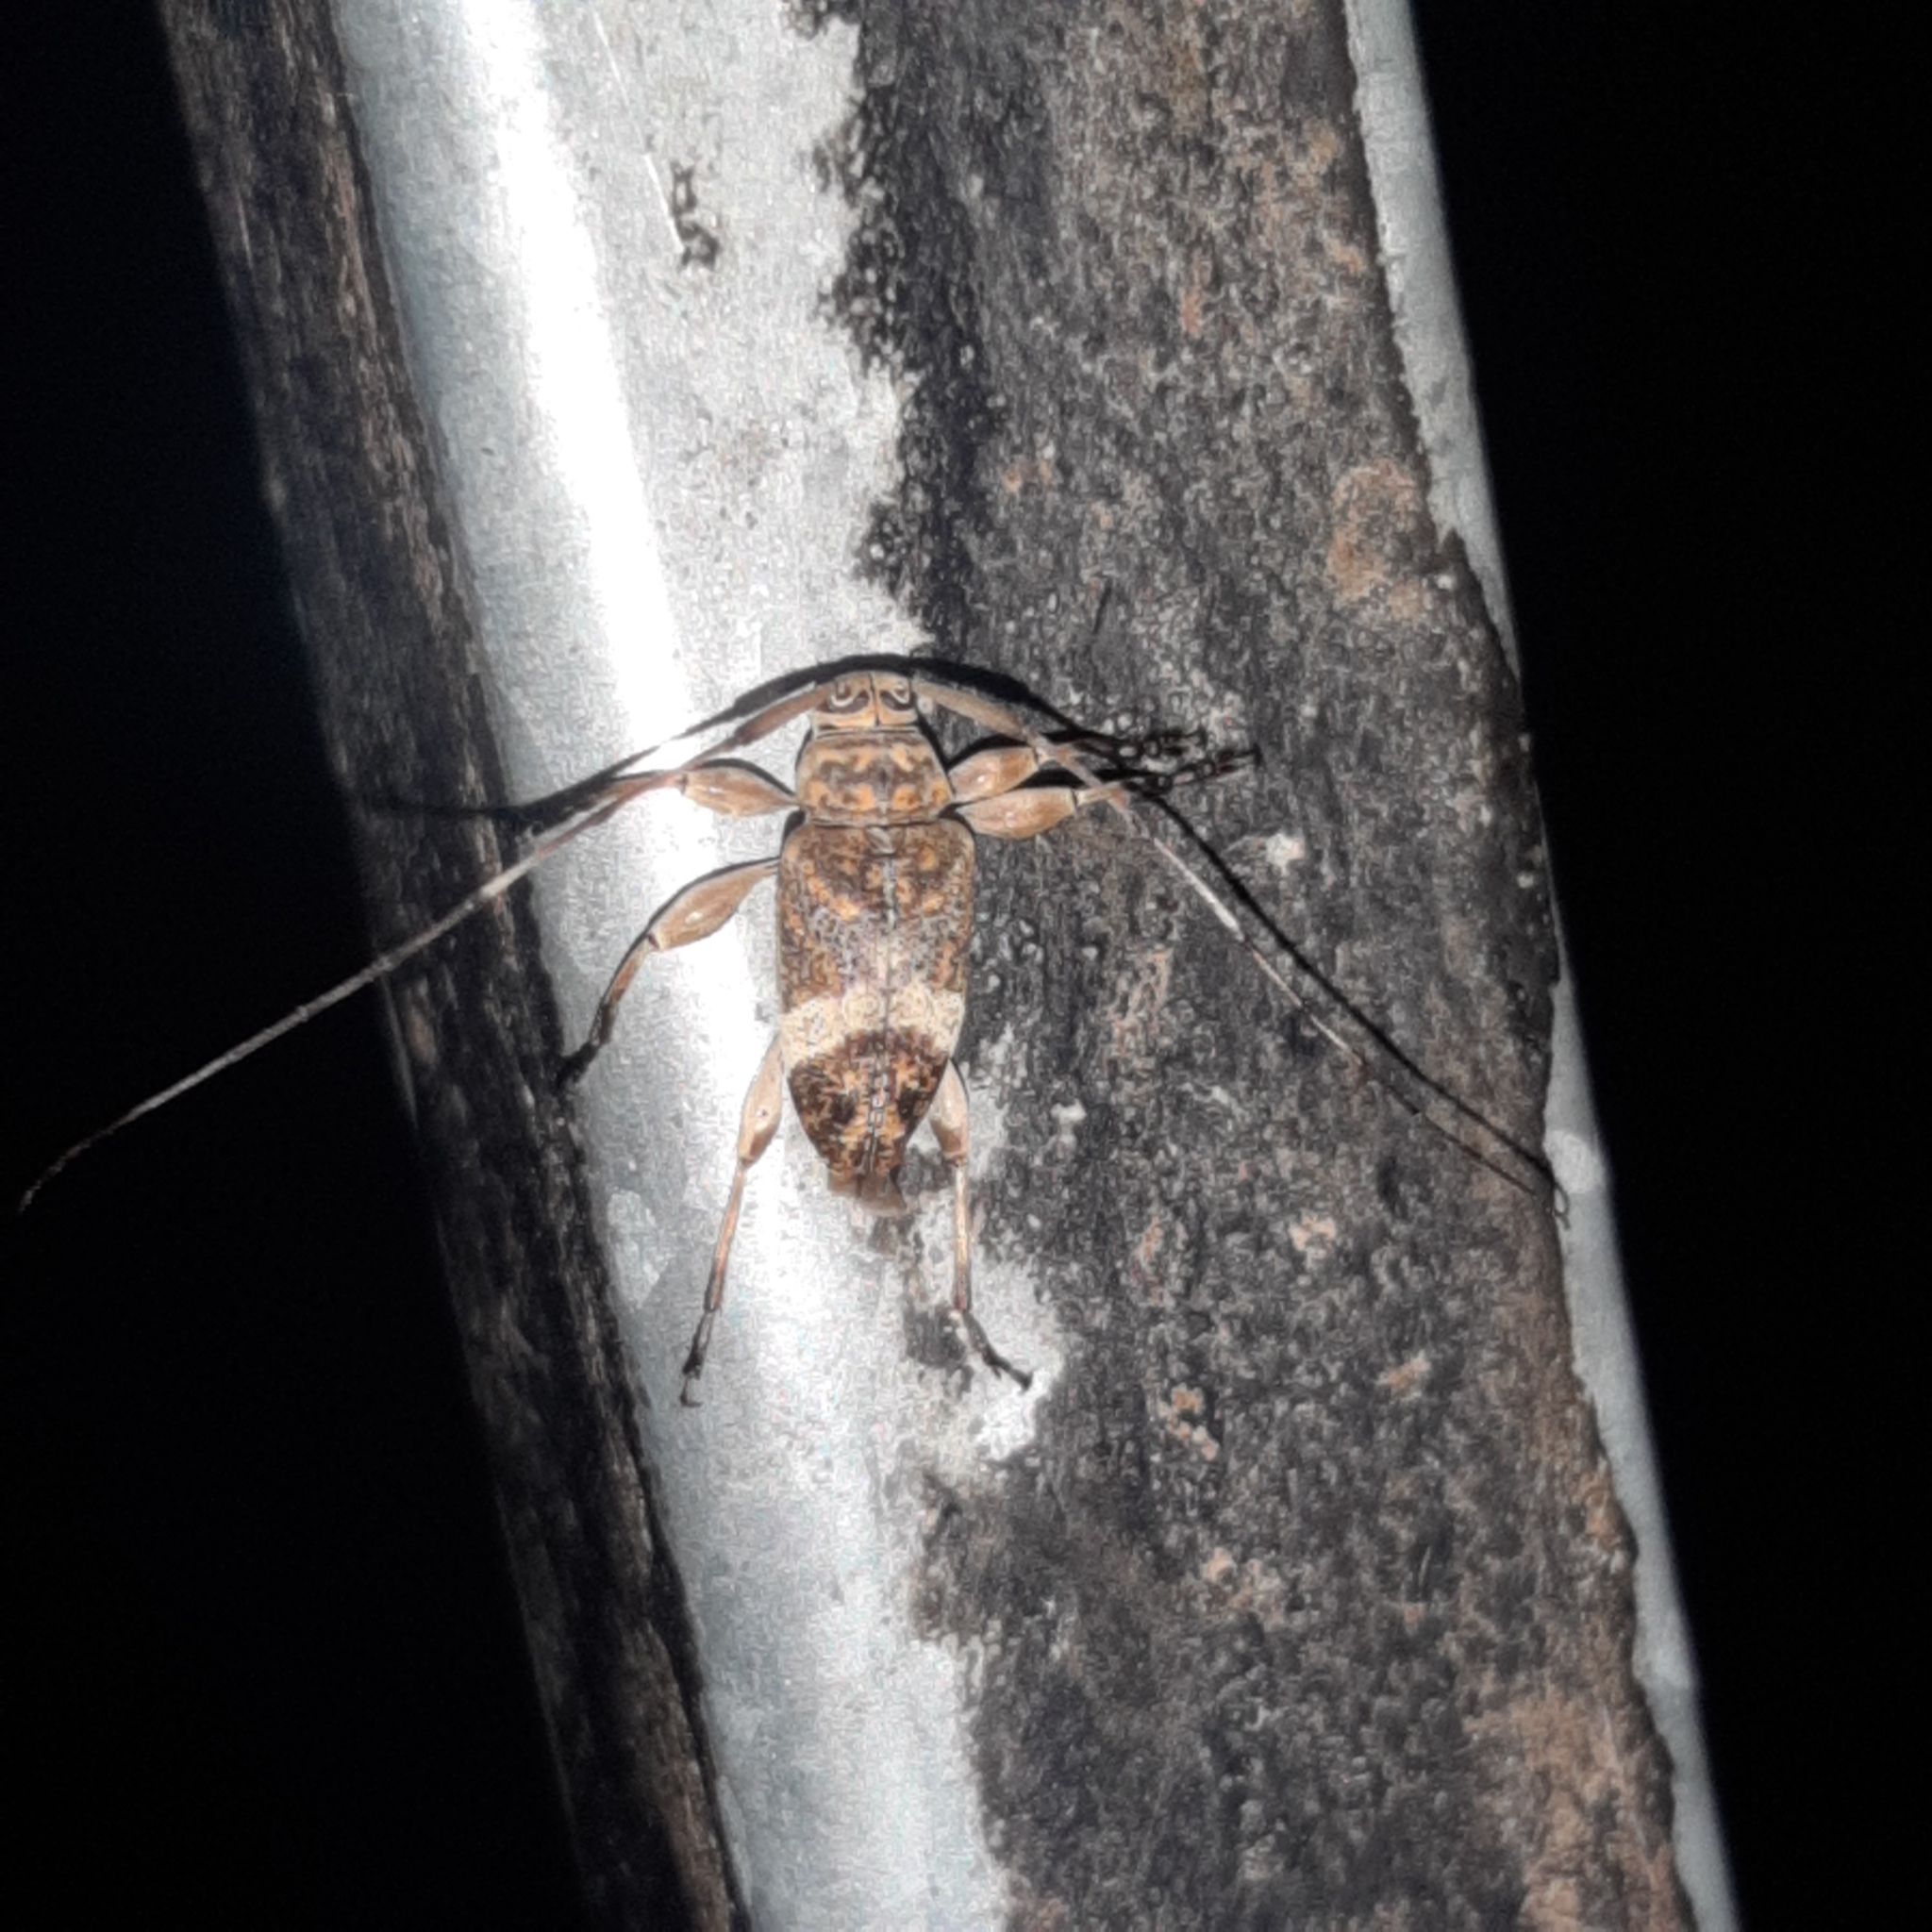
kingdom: Animalia
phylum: Arthropoda
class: Insecta
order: Coleoptera
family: Cerambycidae
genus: Atrypanius
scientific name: Atrypanius implexus
